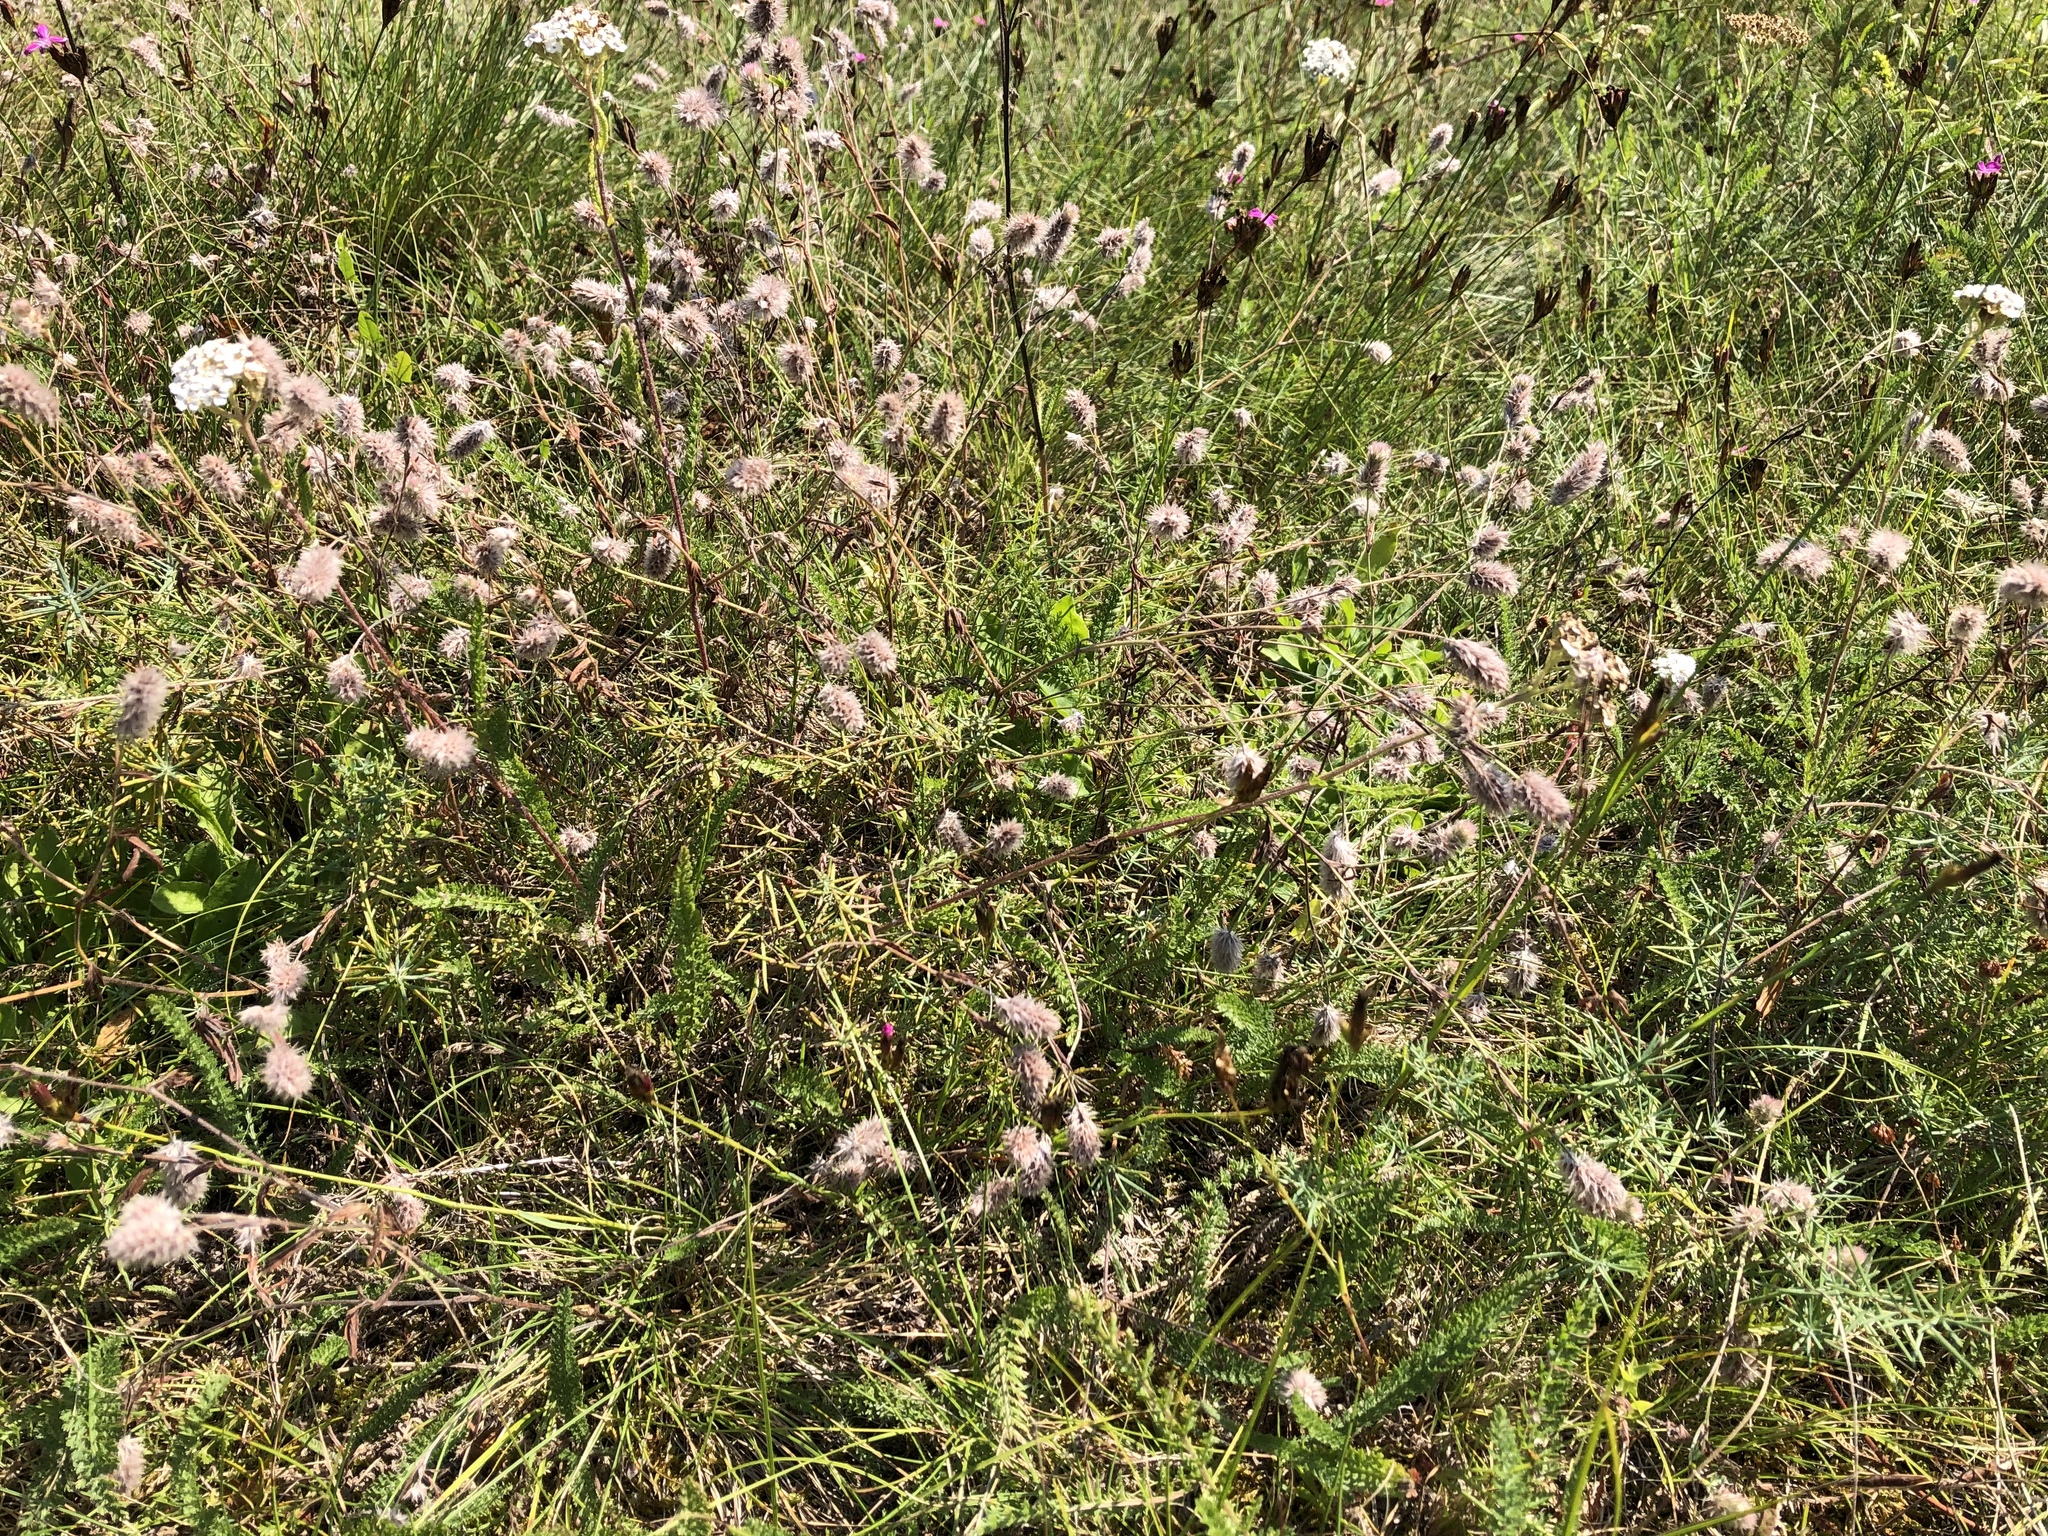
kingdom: Plantae
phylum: Tracheophyta
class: Magnoliopsida
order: Fabales
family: Fabaceae
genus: Trifolium
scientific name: Trifolium arvense
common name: Hare's-foot clover
